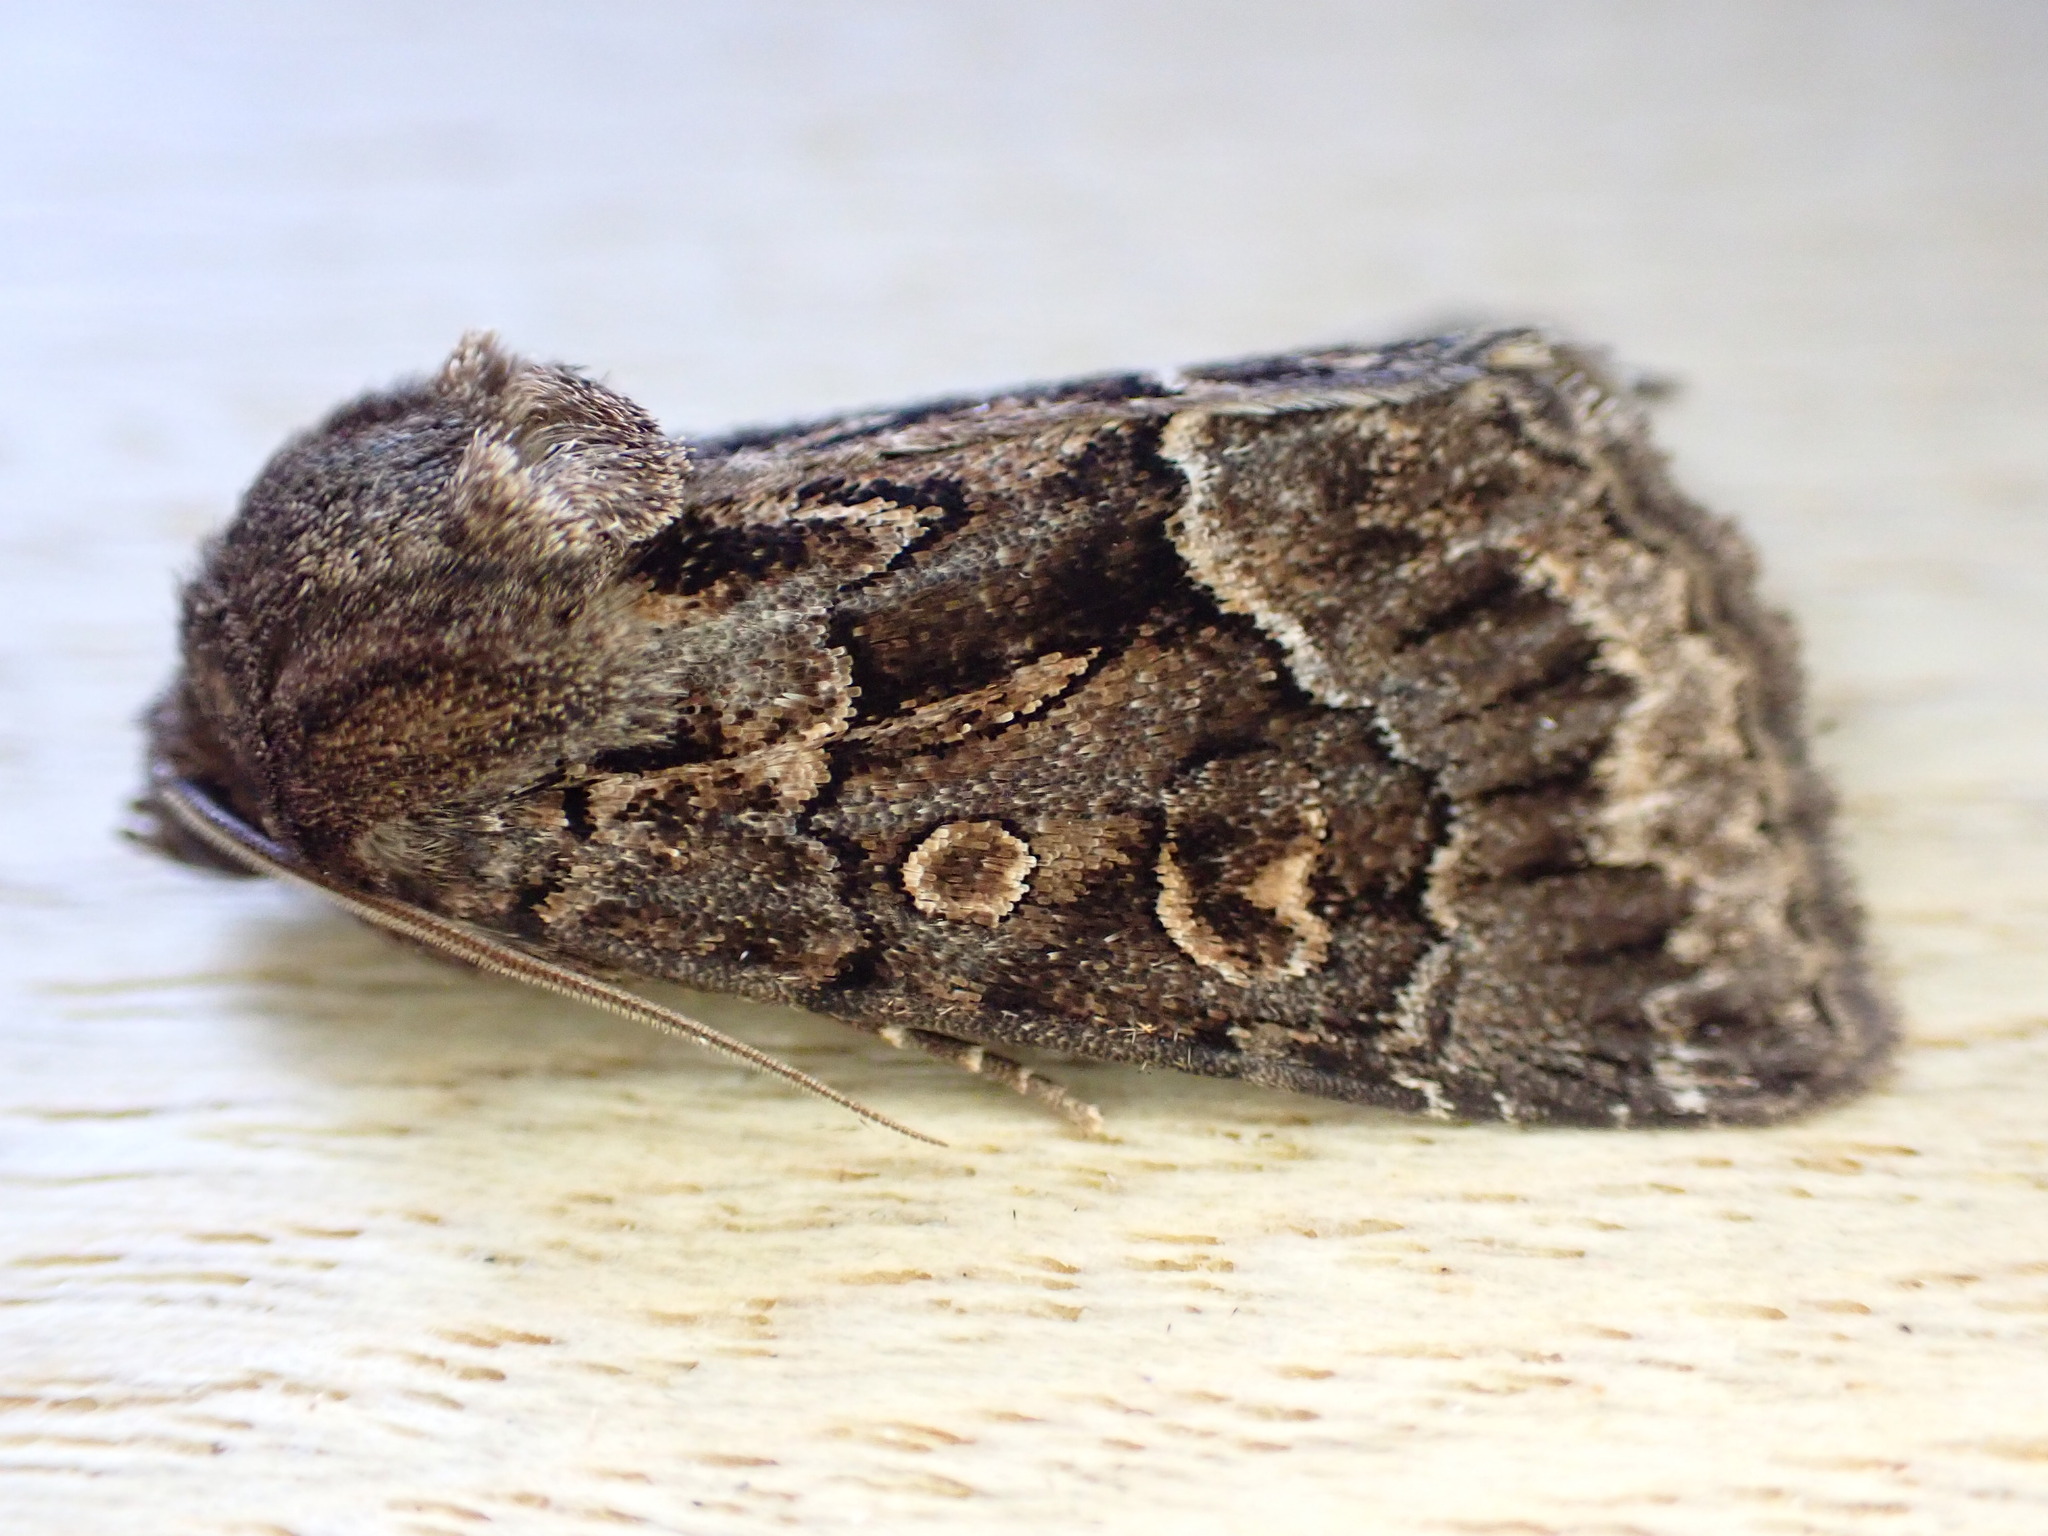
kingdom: Animalia
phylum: Arthropoda
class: Insecta
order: Lepidoptera
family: Noctuidae
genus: Thalpophila
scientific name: Thalpophila matura
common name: Straw underwing
